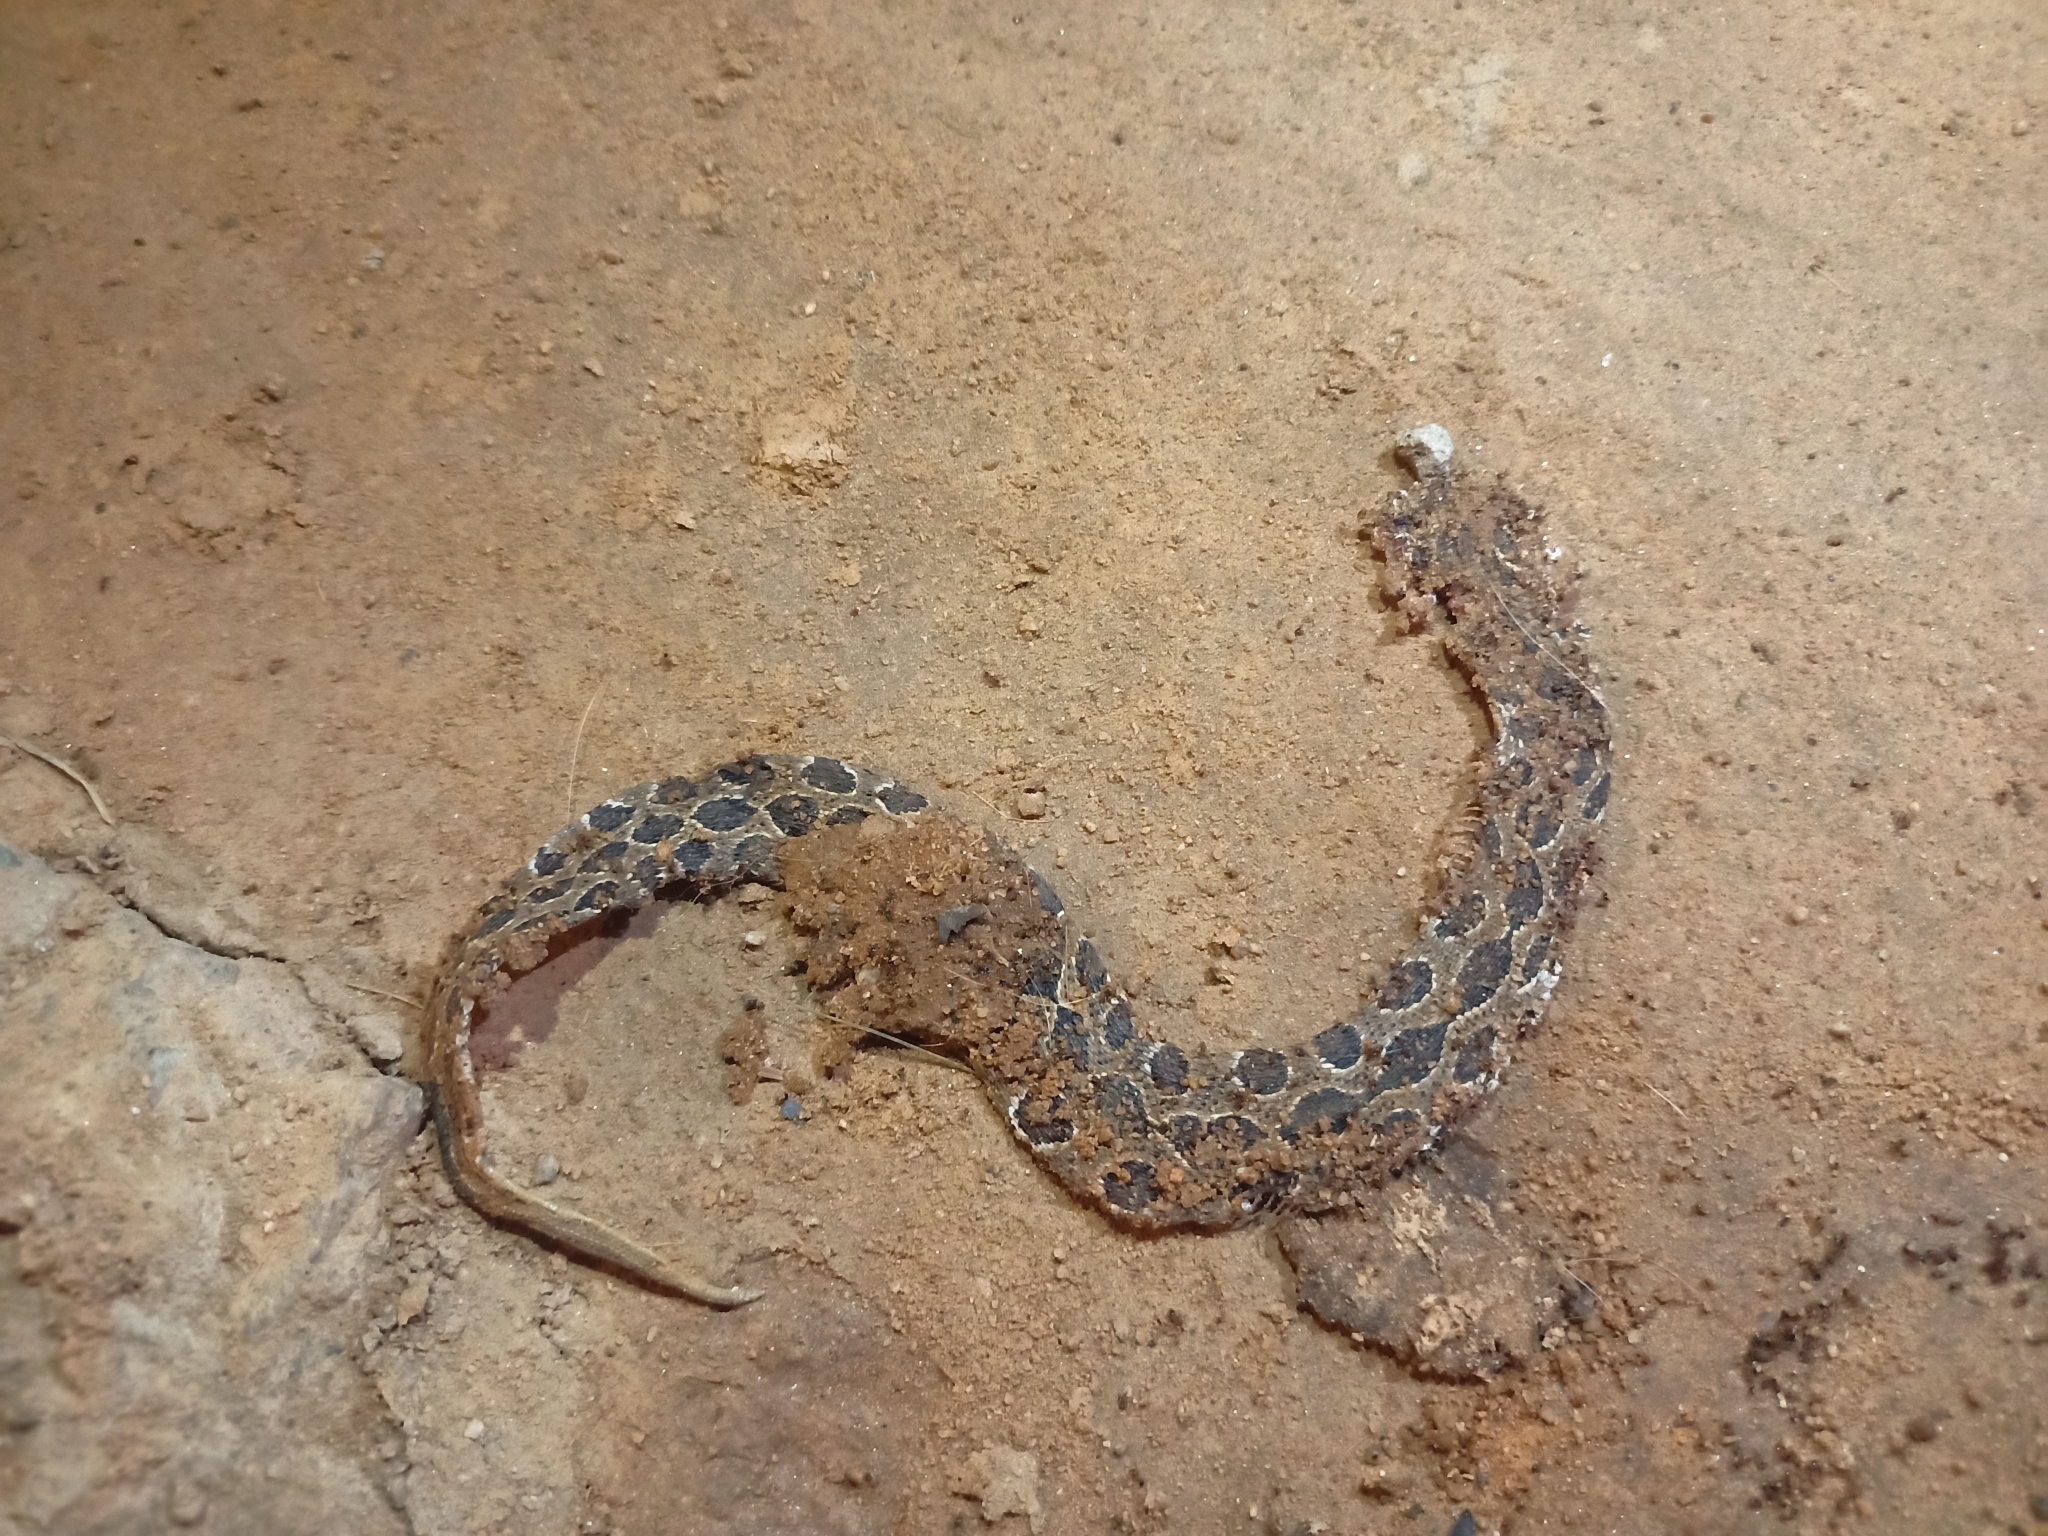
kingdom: Animalia
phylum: Chordata
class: Squamata
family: Viperidae
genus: Daboia
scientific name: Daboia russelii
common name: Western russel’s viper
